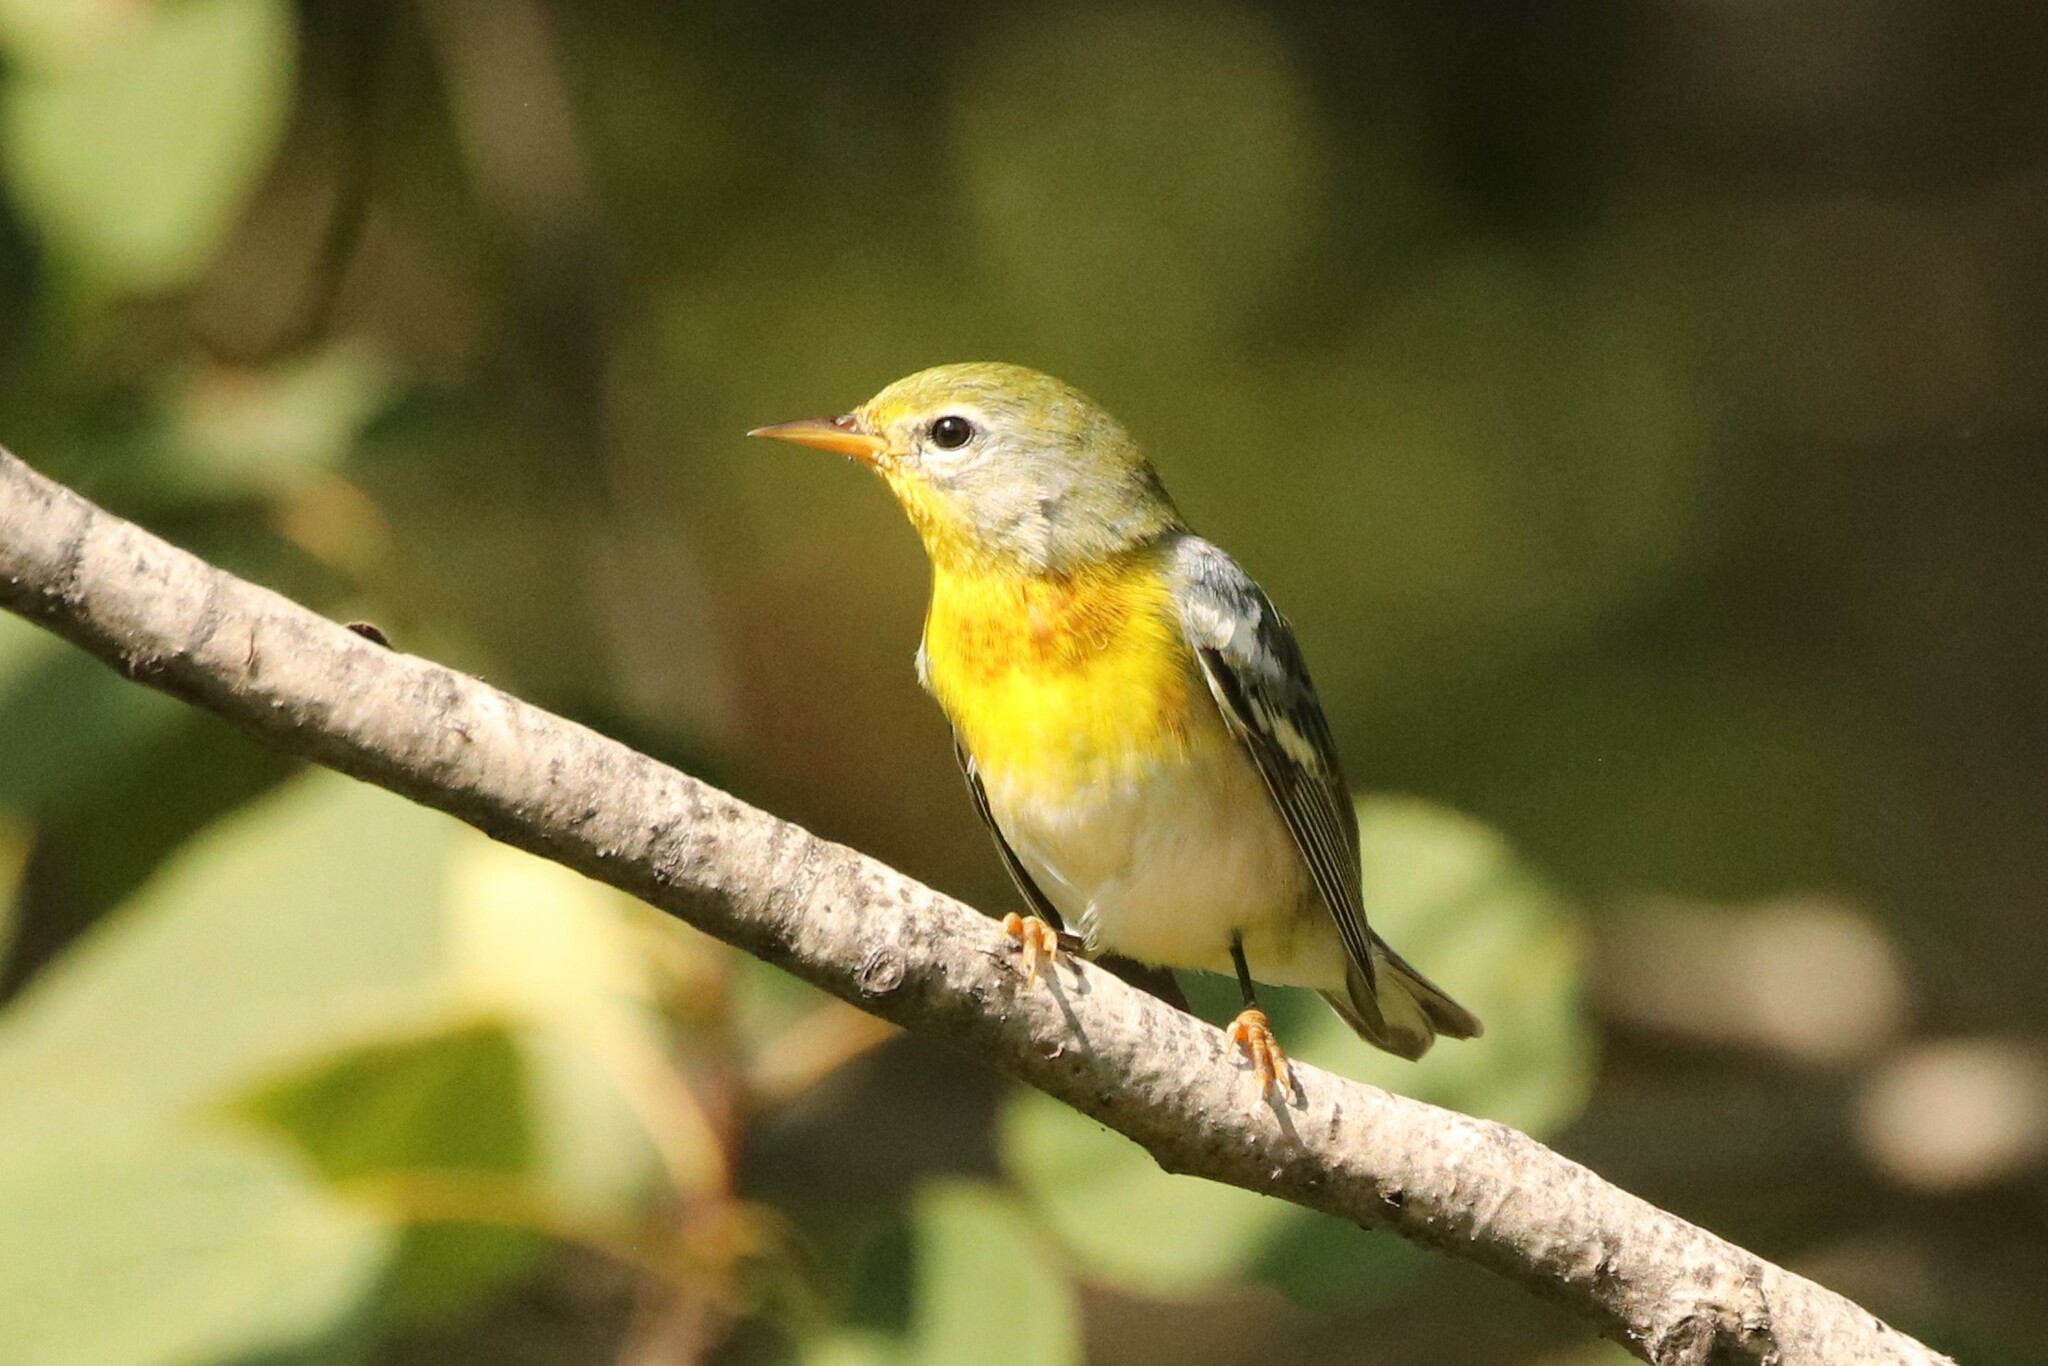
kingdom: Animalia
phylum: Chordata
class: Aves
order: Passeriformes
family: Parulidae
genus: Setophaga
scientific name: Setophaga americana
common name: Northern parula
